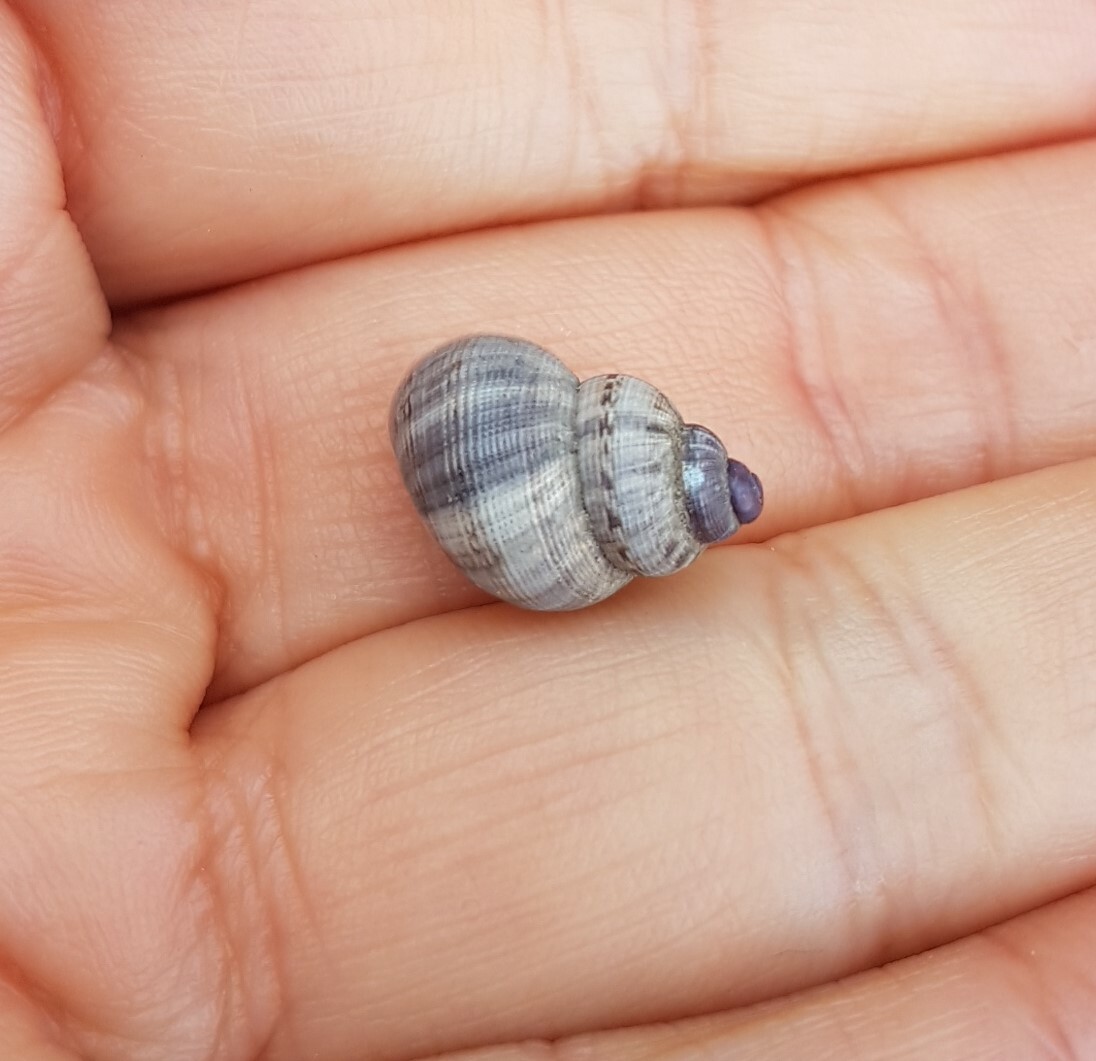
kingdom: Animalia
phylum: Mollusca
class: Gastropoda
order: Littorinimorpha
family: Pomatiidae
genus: Pomatias
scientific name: Pomatias elegans
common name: Red-mouthed snail
